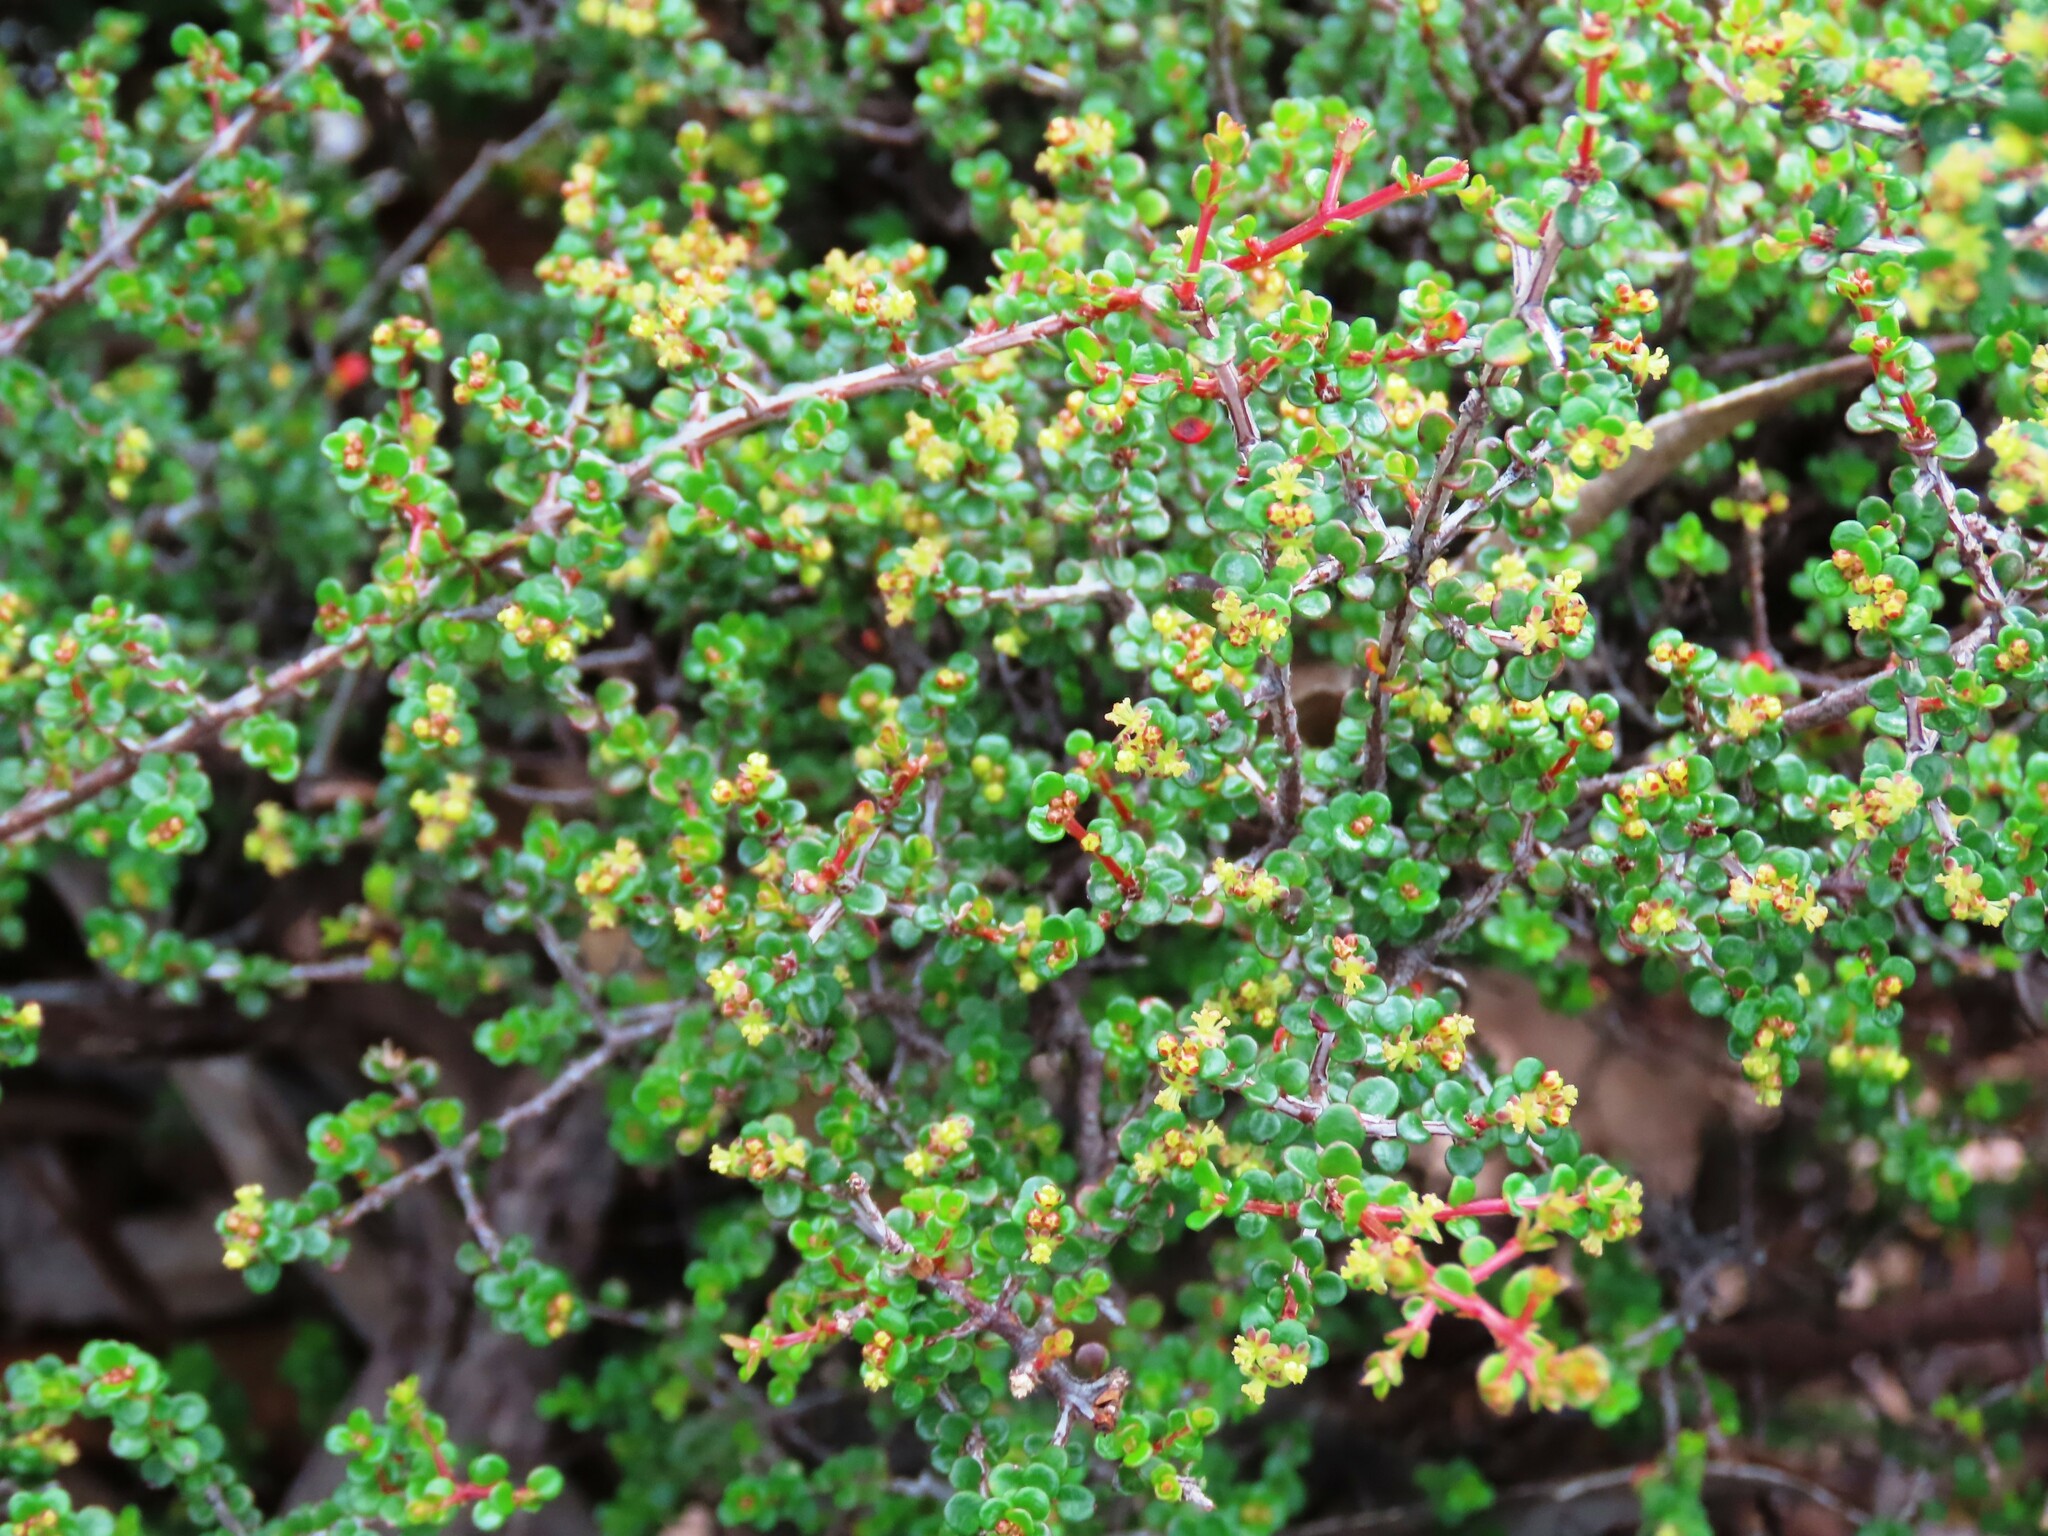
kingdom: Plantae
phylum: Tracheophyta
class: Magnoliopsida
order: Malpighiales
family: Picrodendraceae
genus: Pseudanthus
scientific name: Pseudanthus orbicularis
